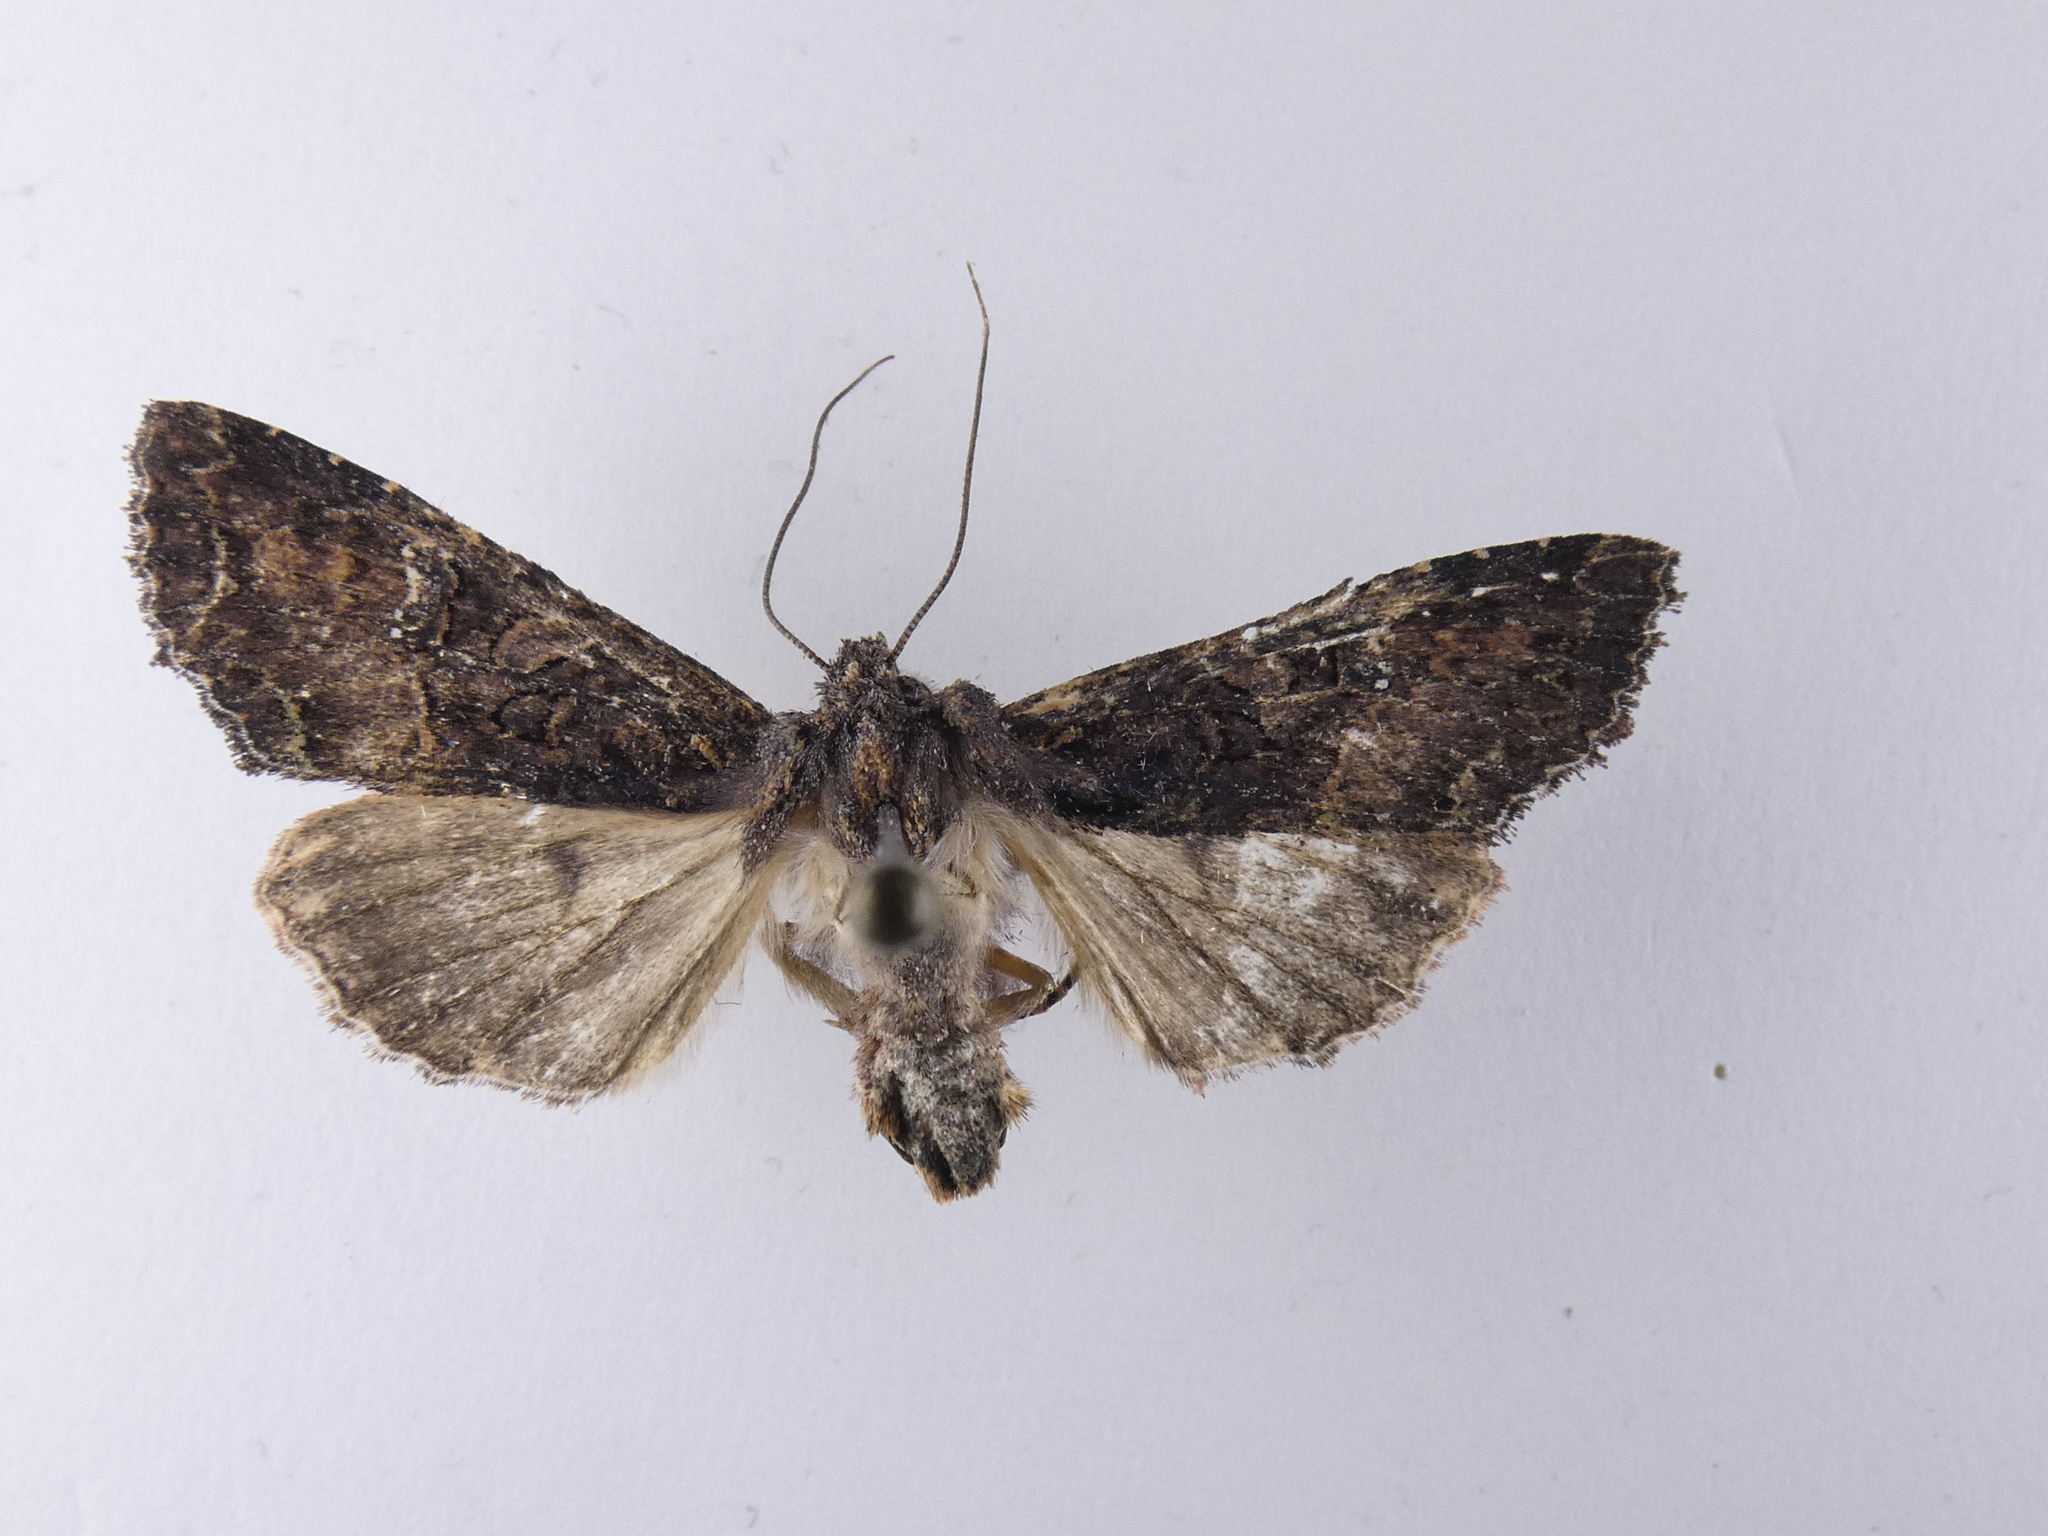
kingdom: Animalia
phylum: Arthropoda
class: Insecta
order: Lepidoptera
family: Noctuidae
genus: Meterana
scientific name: Meterana ochthistis
